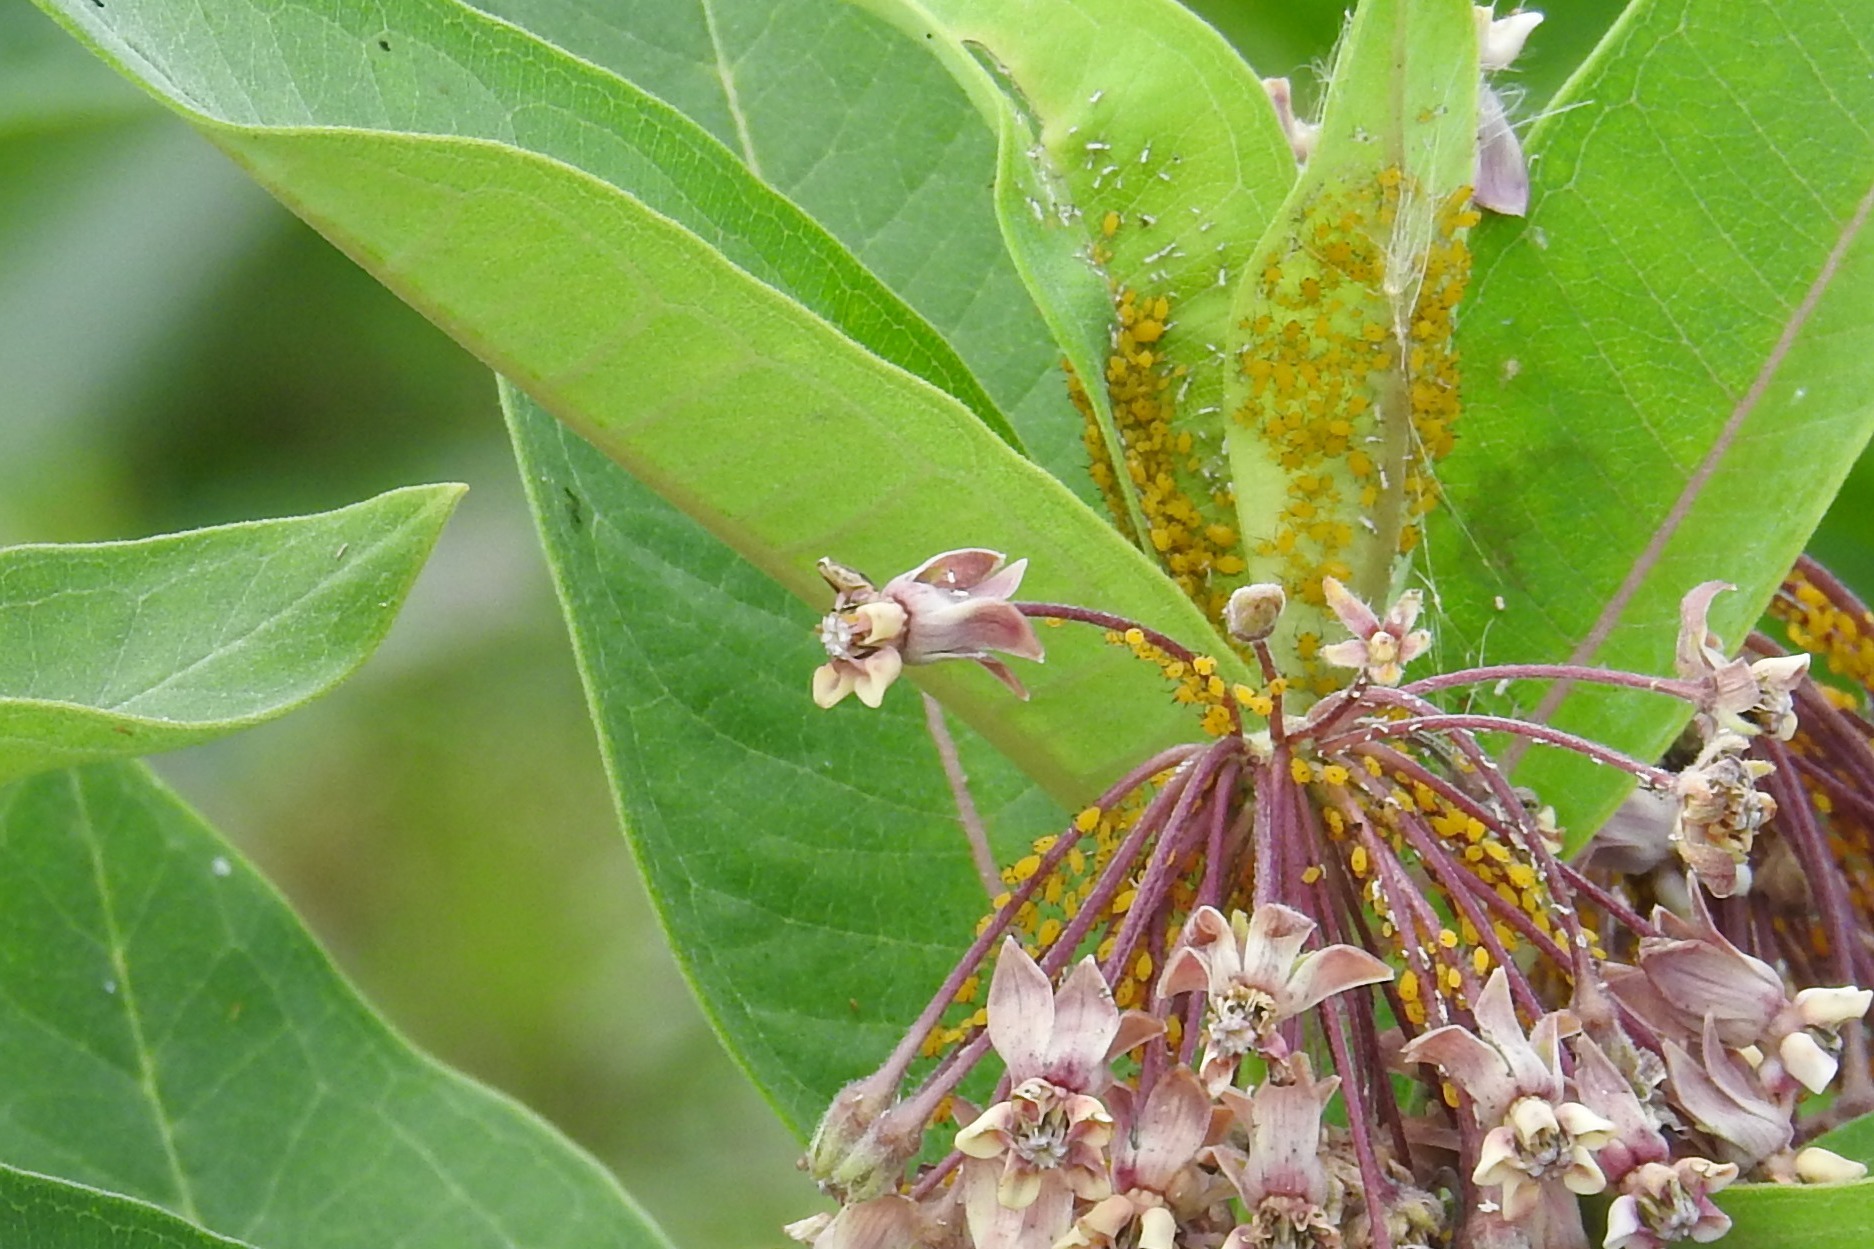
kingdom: Animalia
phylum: Arthropoda
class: Insecta
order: Hemiptera
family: Aphididae
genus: Aphis
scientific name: Aphis nerii
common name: Oleander aphid
